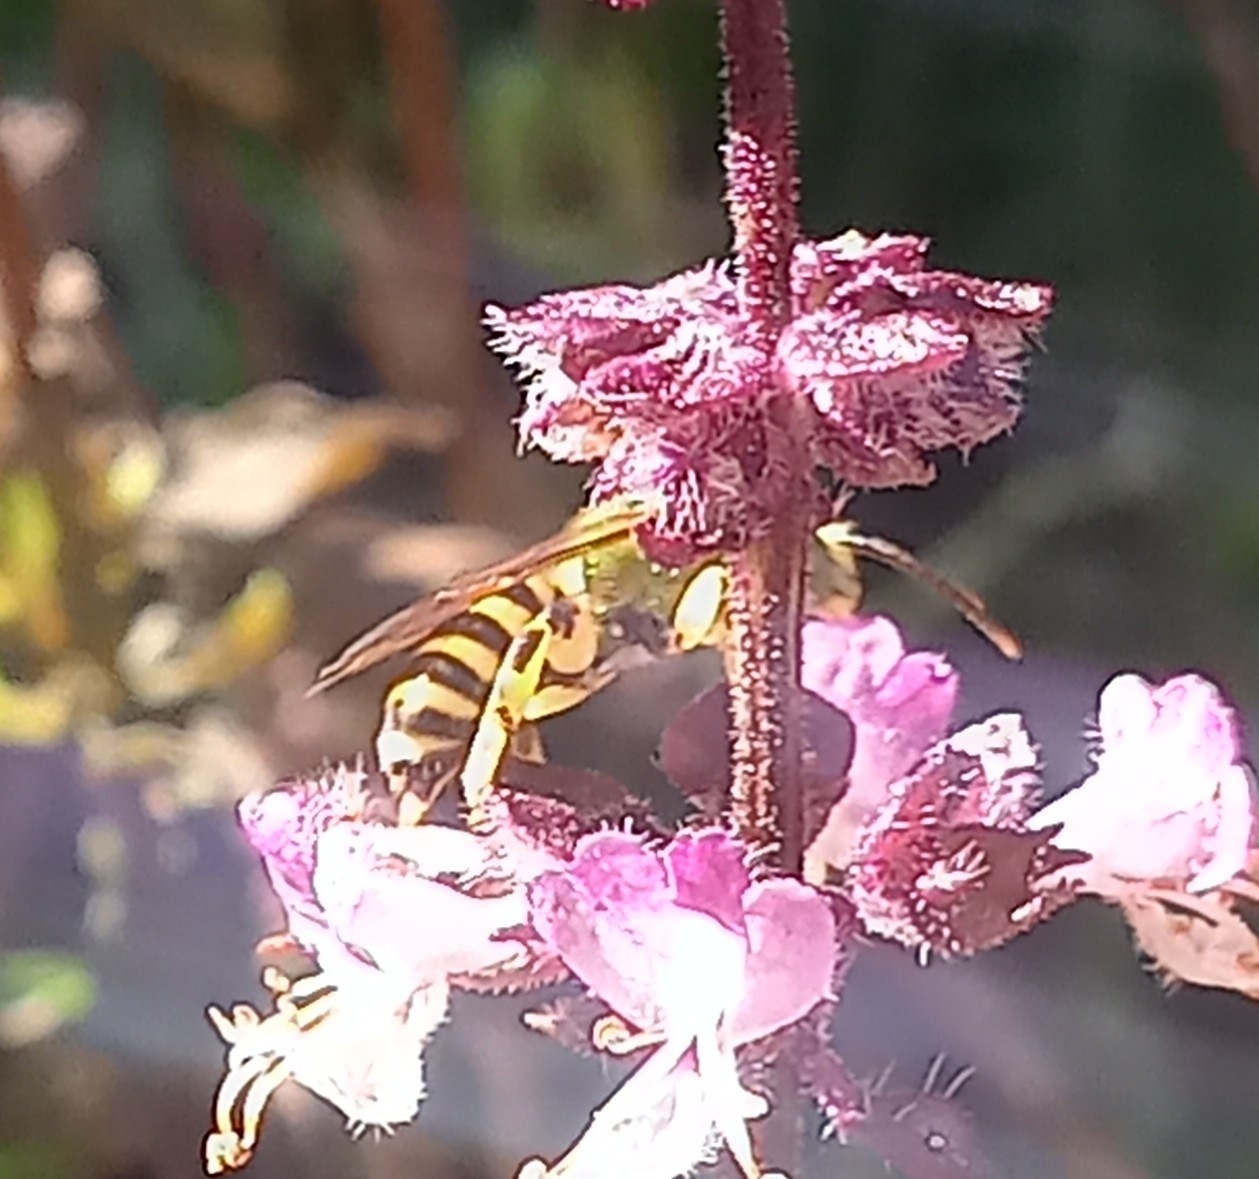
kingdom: Animalia
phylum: Arthropoda
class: Insecta
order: Hymenoptera
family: Halictidae
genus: Agapostemon
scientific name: Agapostemon splendens
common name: Brown-winged striped sweat bee
